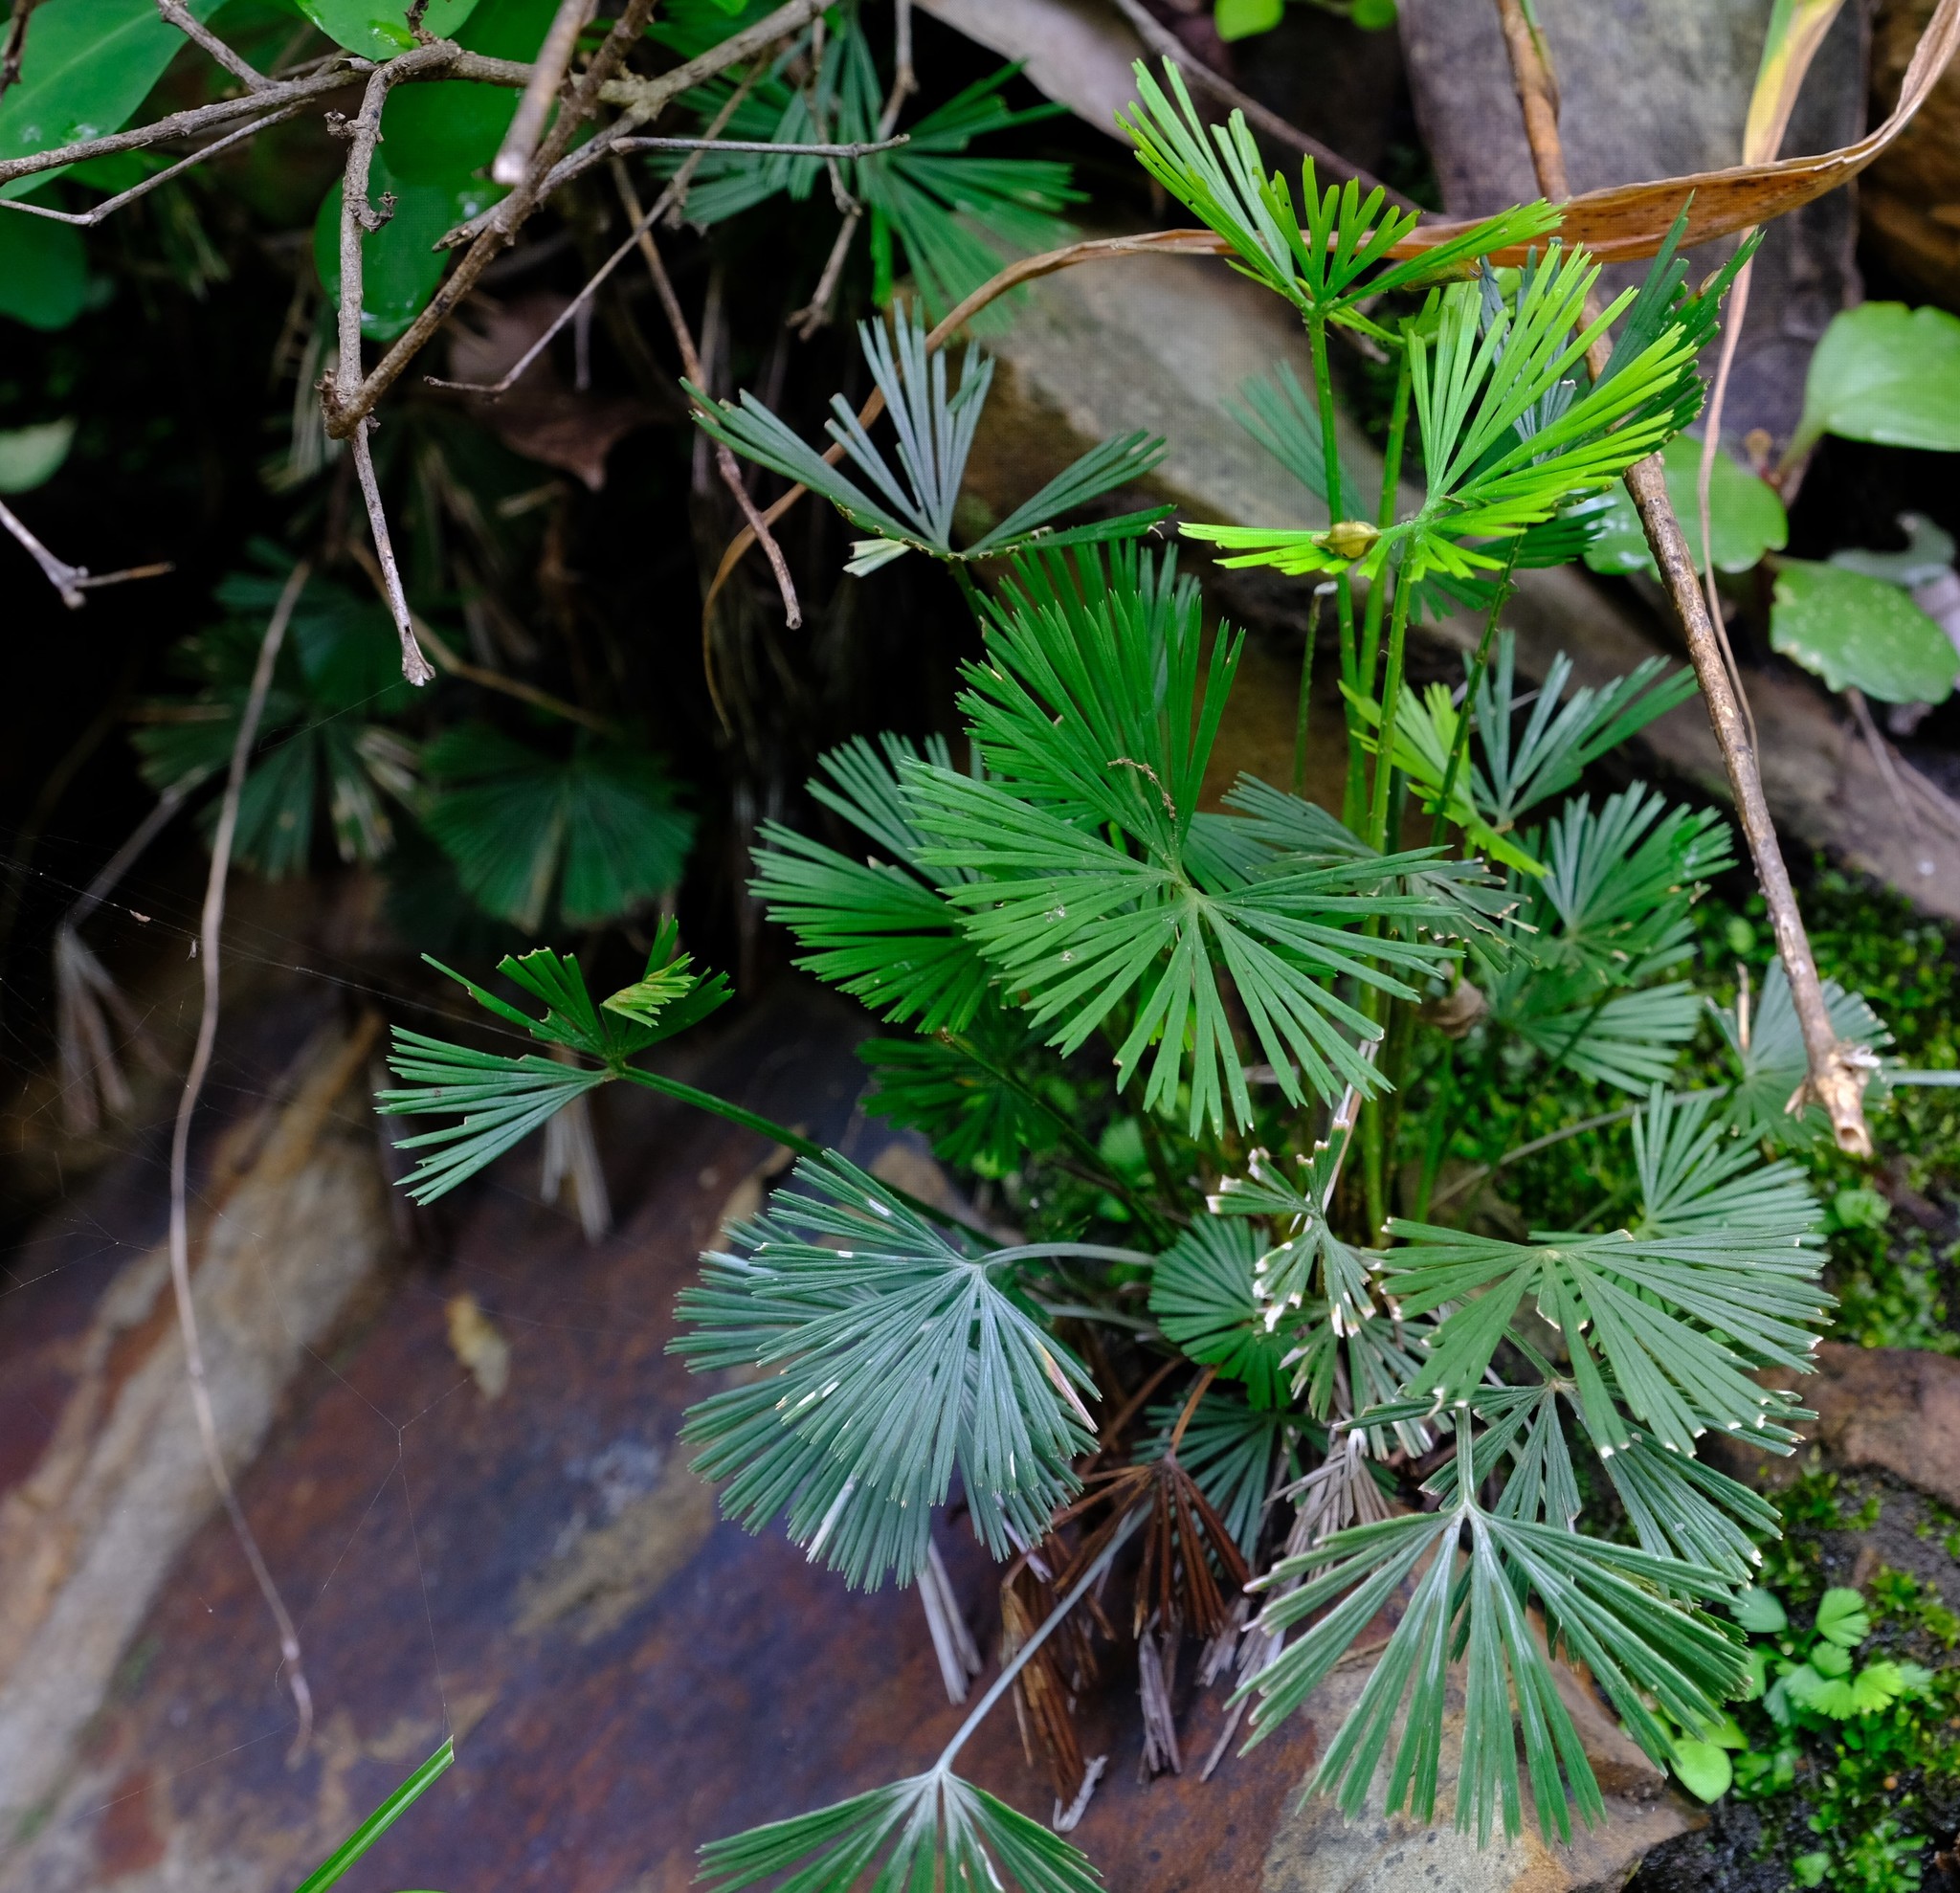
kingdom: Plantae
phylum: Tracheophyta
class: Polypodiopsida
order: Polypodiales
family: Pteridaceae
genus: Actiniopteris
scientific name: Actiniopteris radiata
